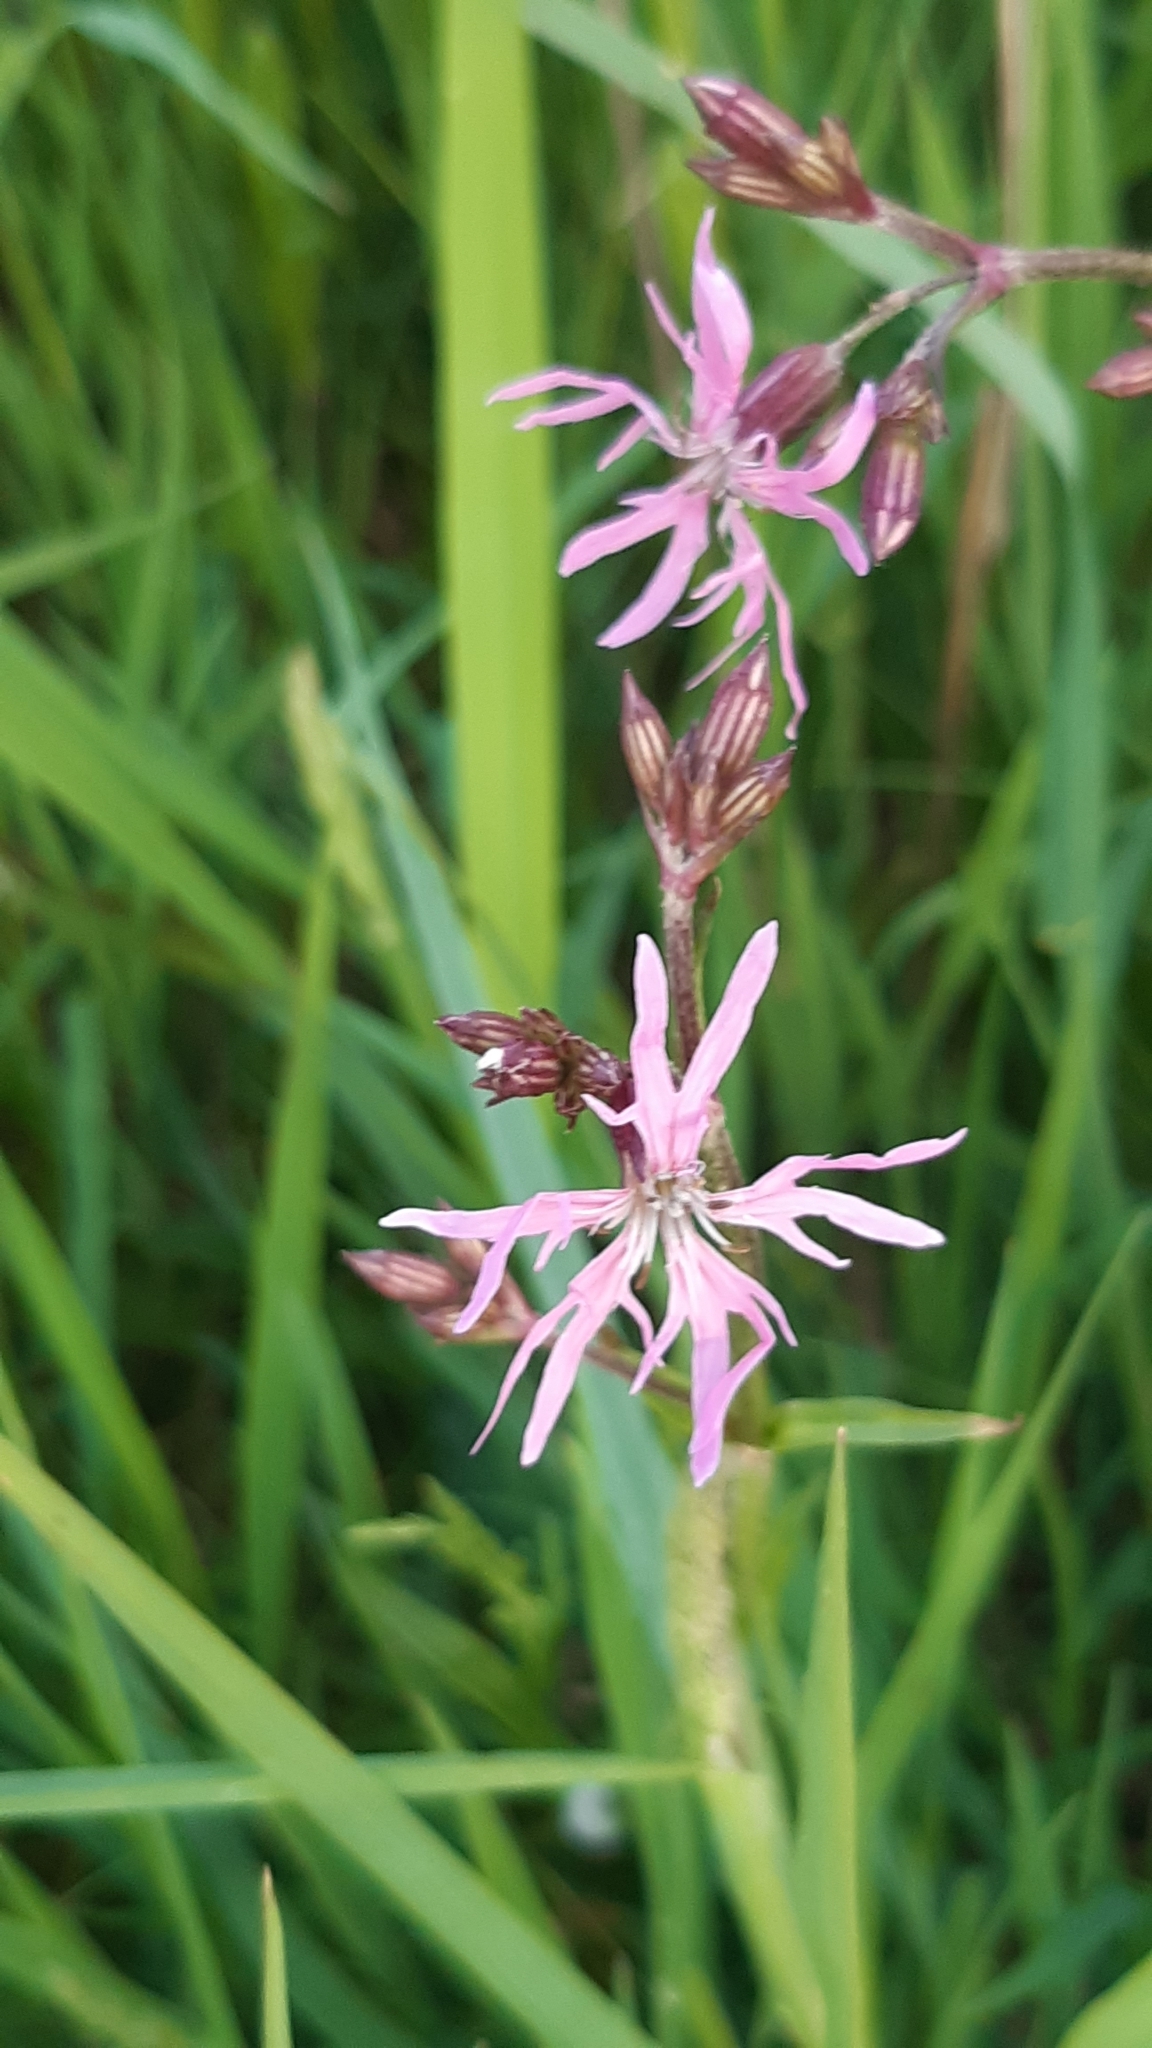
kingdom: Plantae
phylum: Tracheophyta
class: Magnoliopsida
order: Caryophyllales
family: Caryophyllaceae
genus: Silene
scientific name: Silene flos-cuculi
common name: Ragged-robin
